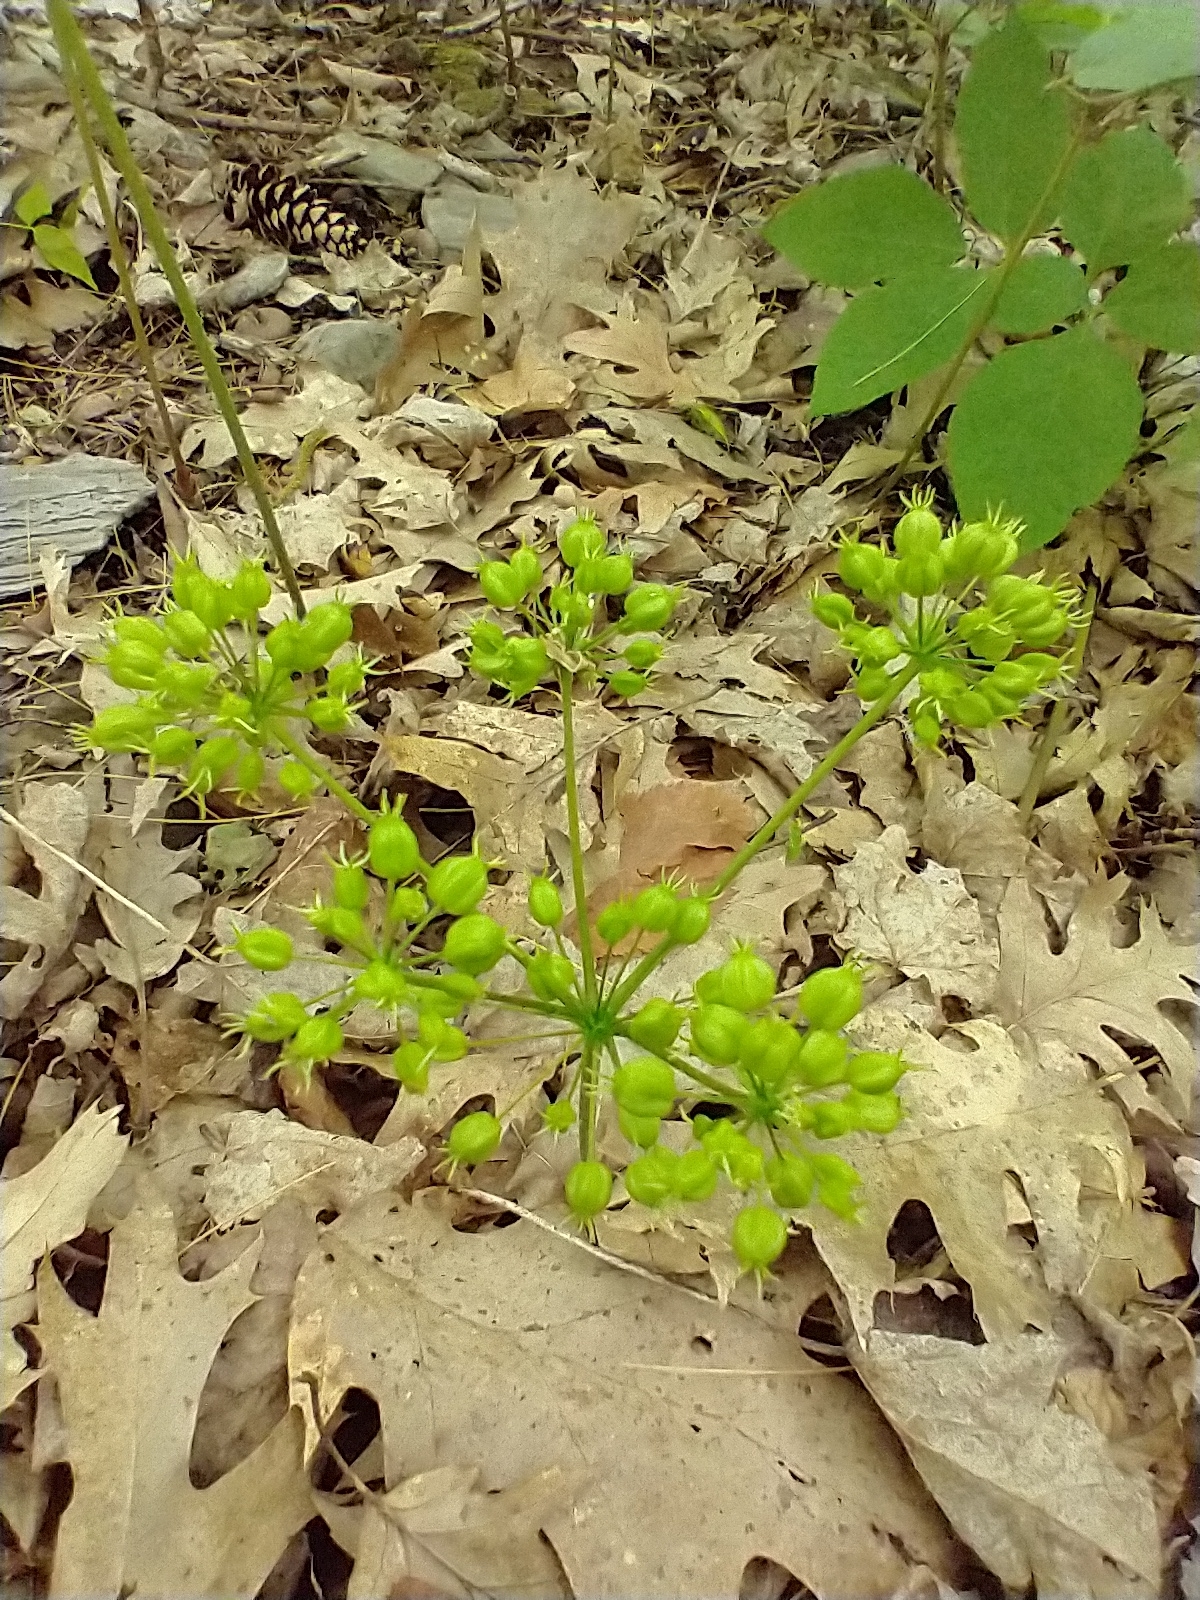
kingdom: Plantae
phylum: Tracheophyta
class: Magnoliopsida
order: Apiales
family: Araliaceae
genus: Aralia
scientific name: Aralia nudicaulis
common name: Wild sarsaparilla
